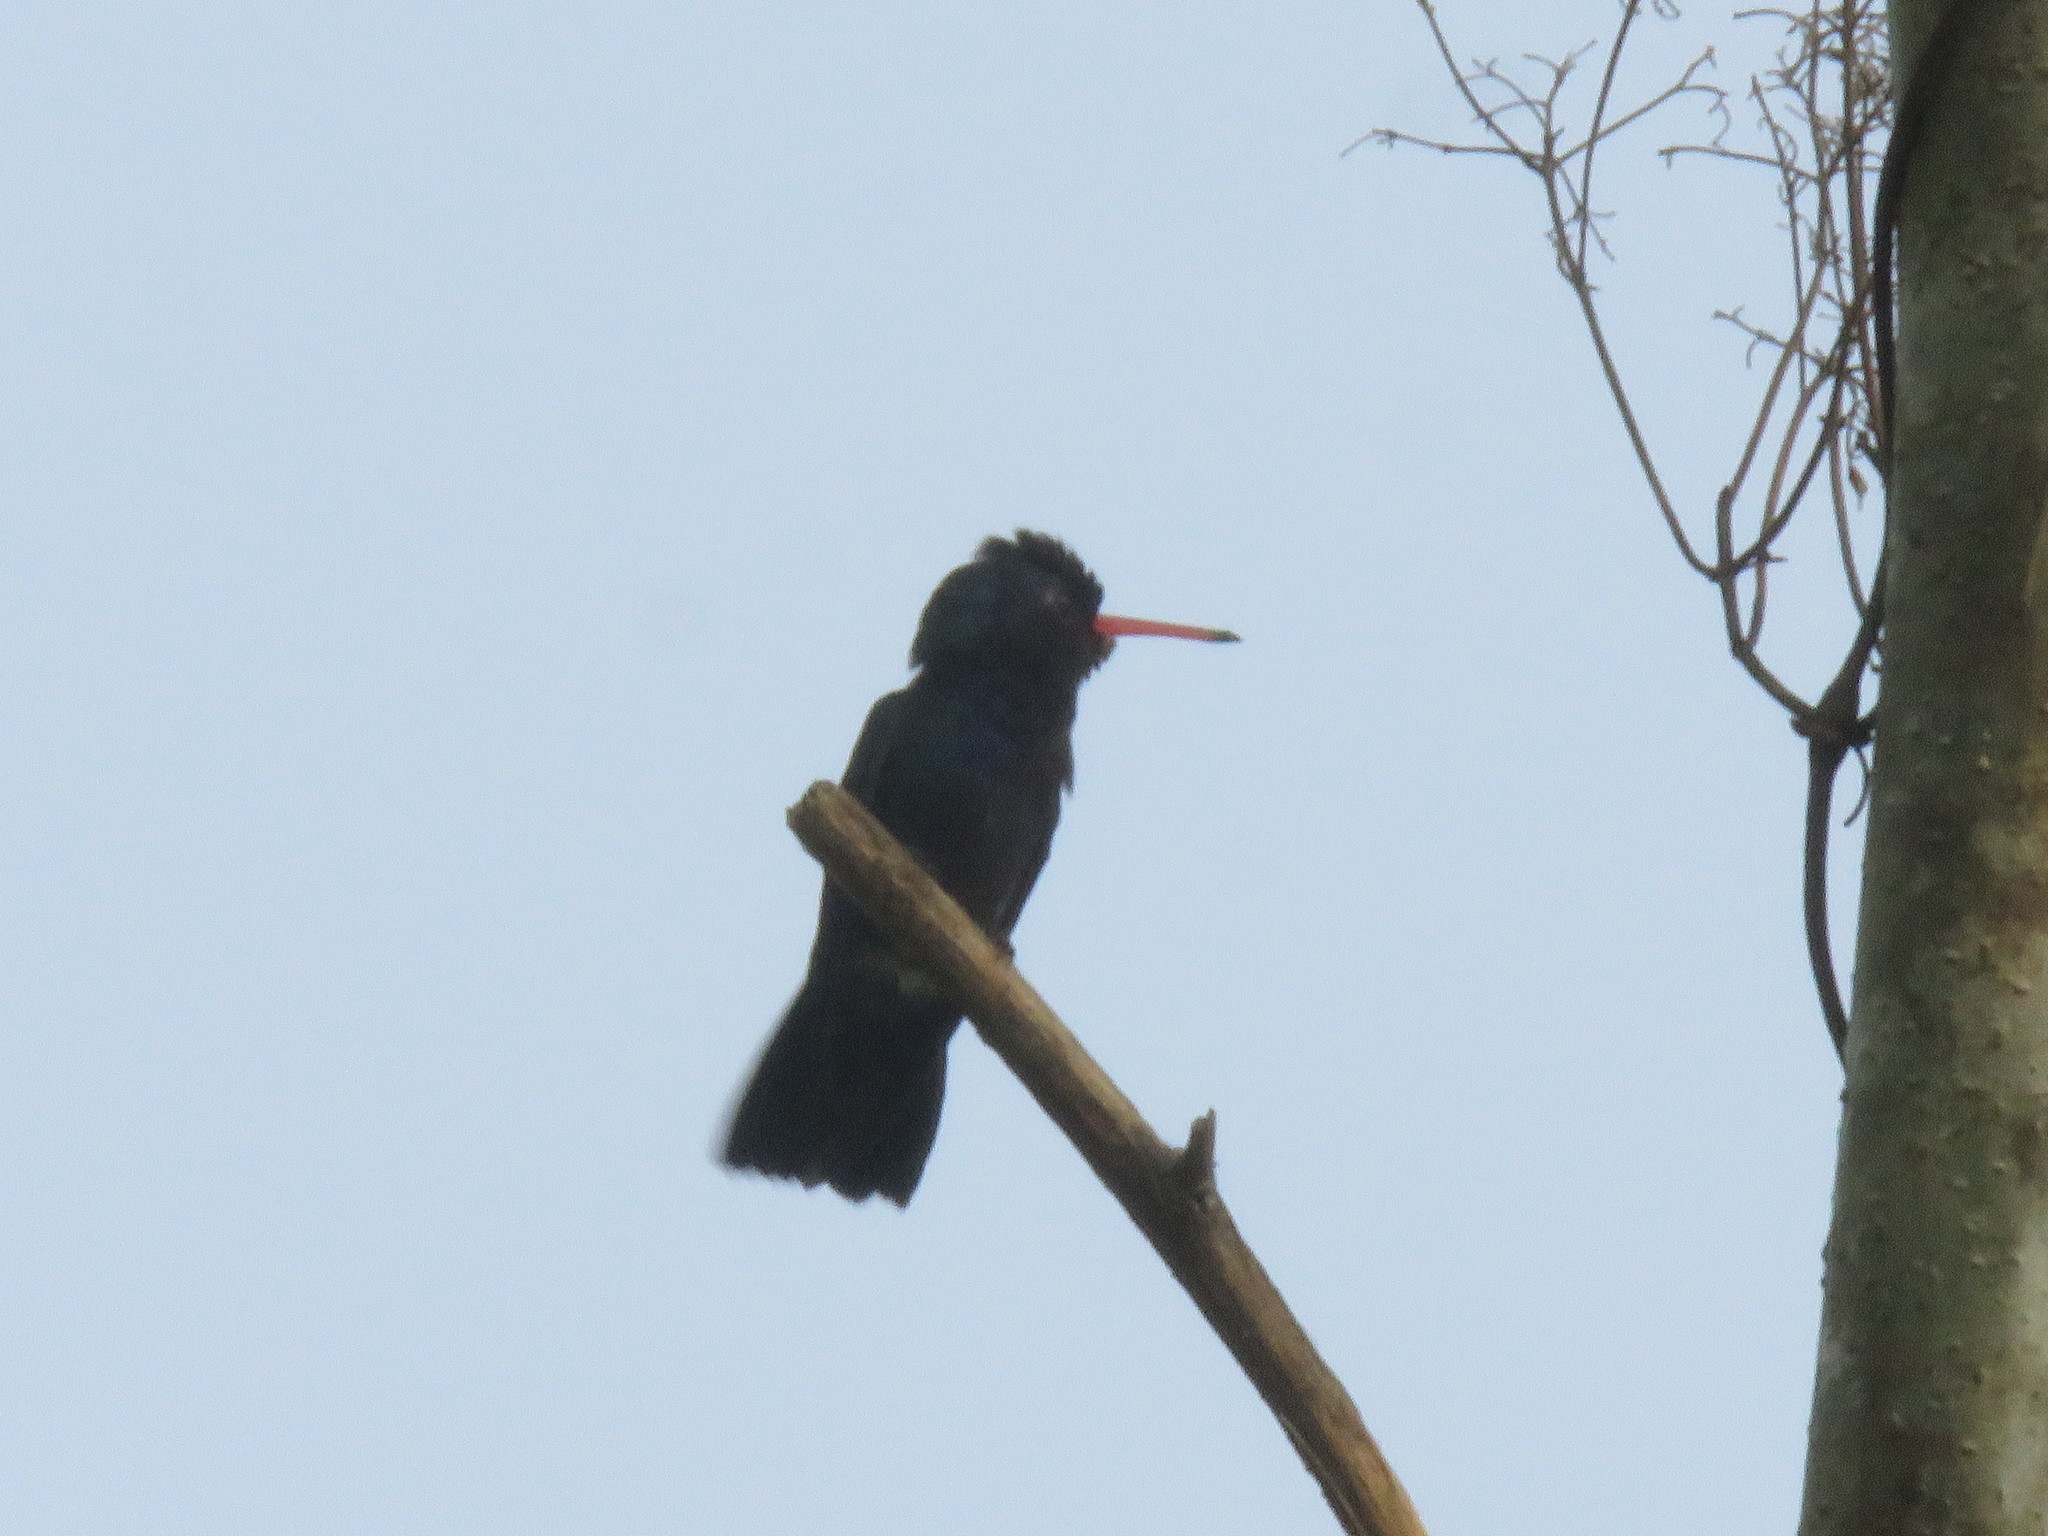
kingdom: Animalia
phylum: Chordata
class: Aves
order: Apodiformes
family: Trochilidae
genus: Chlorestes
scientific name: Chlorestes cyanus
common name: White-chinned sapphire
